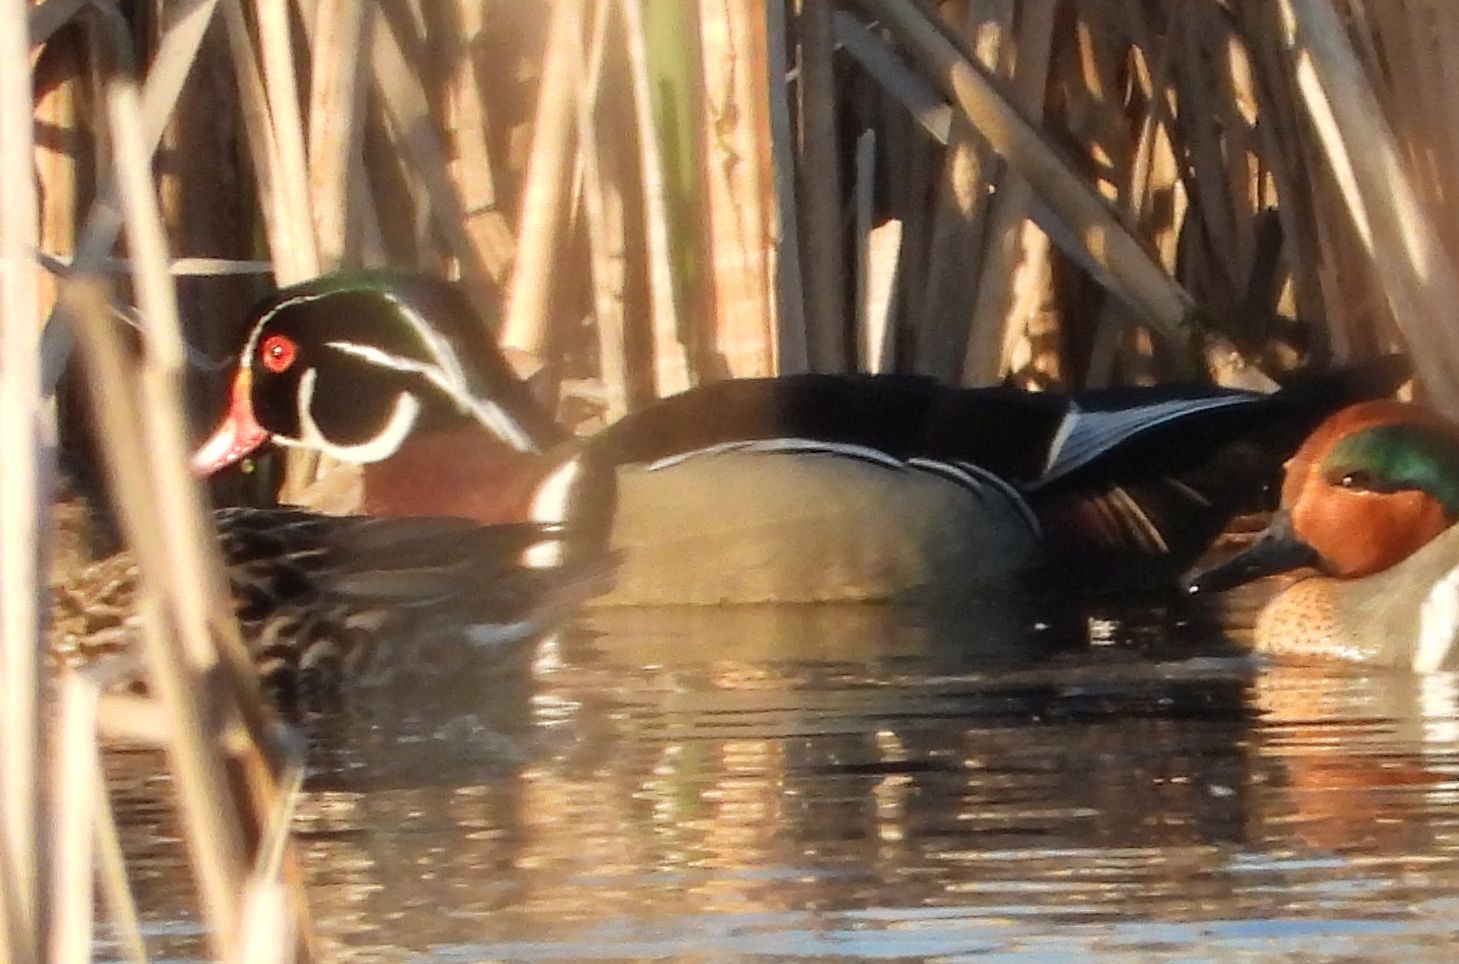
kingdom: Animalia
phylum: Chordata
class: Aves
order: Anseriformes
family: Anatidae
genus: Aix
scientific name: Aix sponsa
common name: Wood duck
